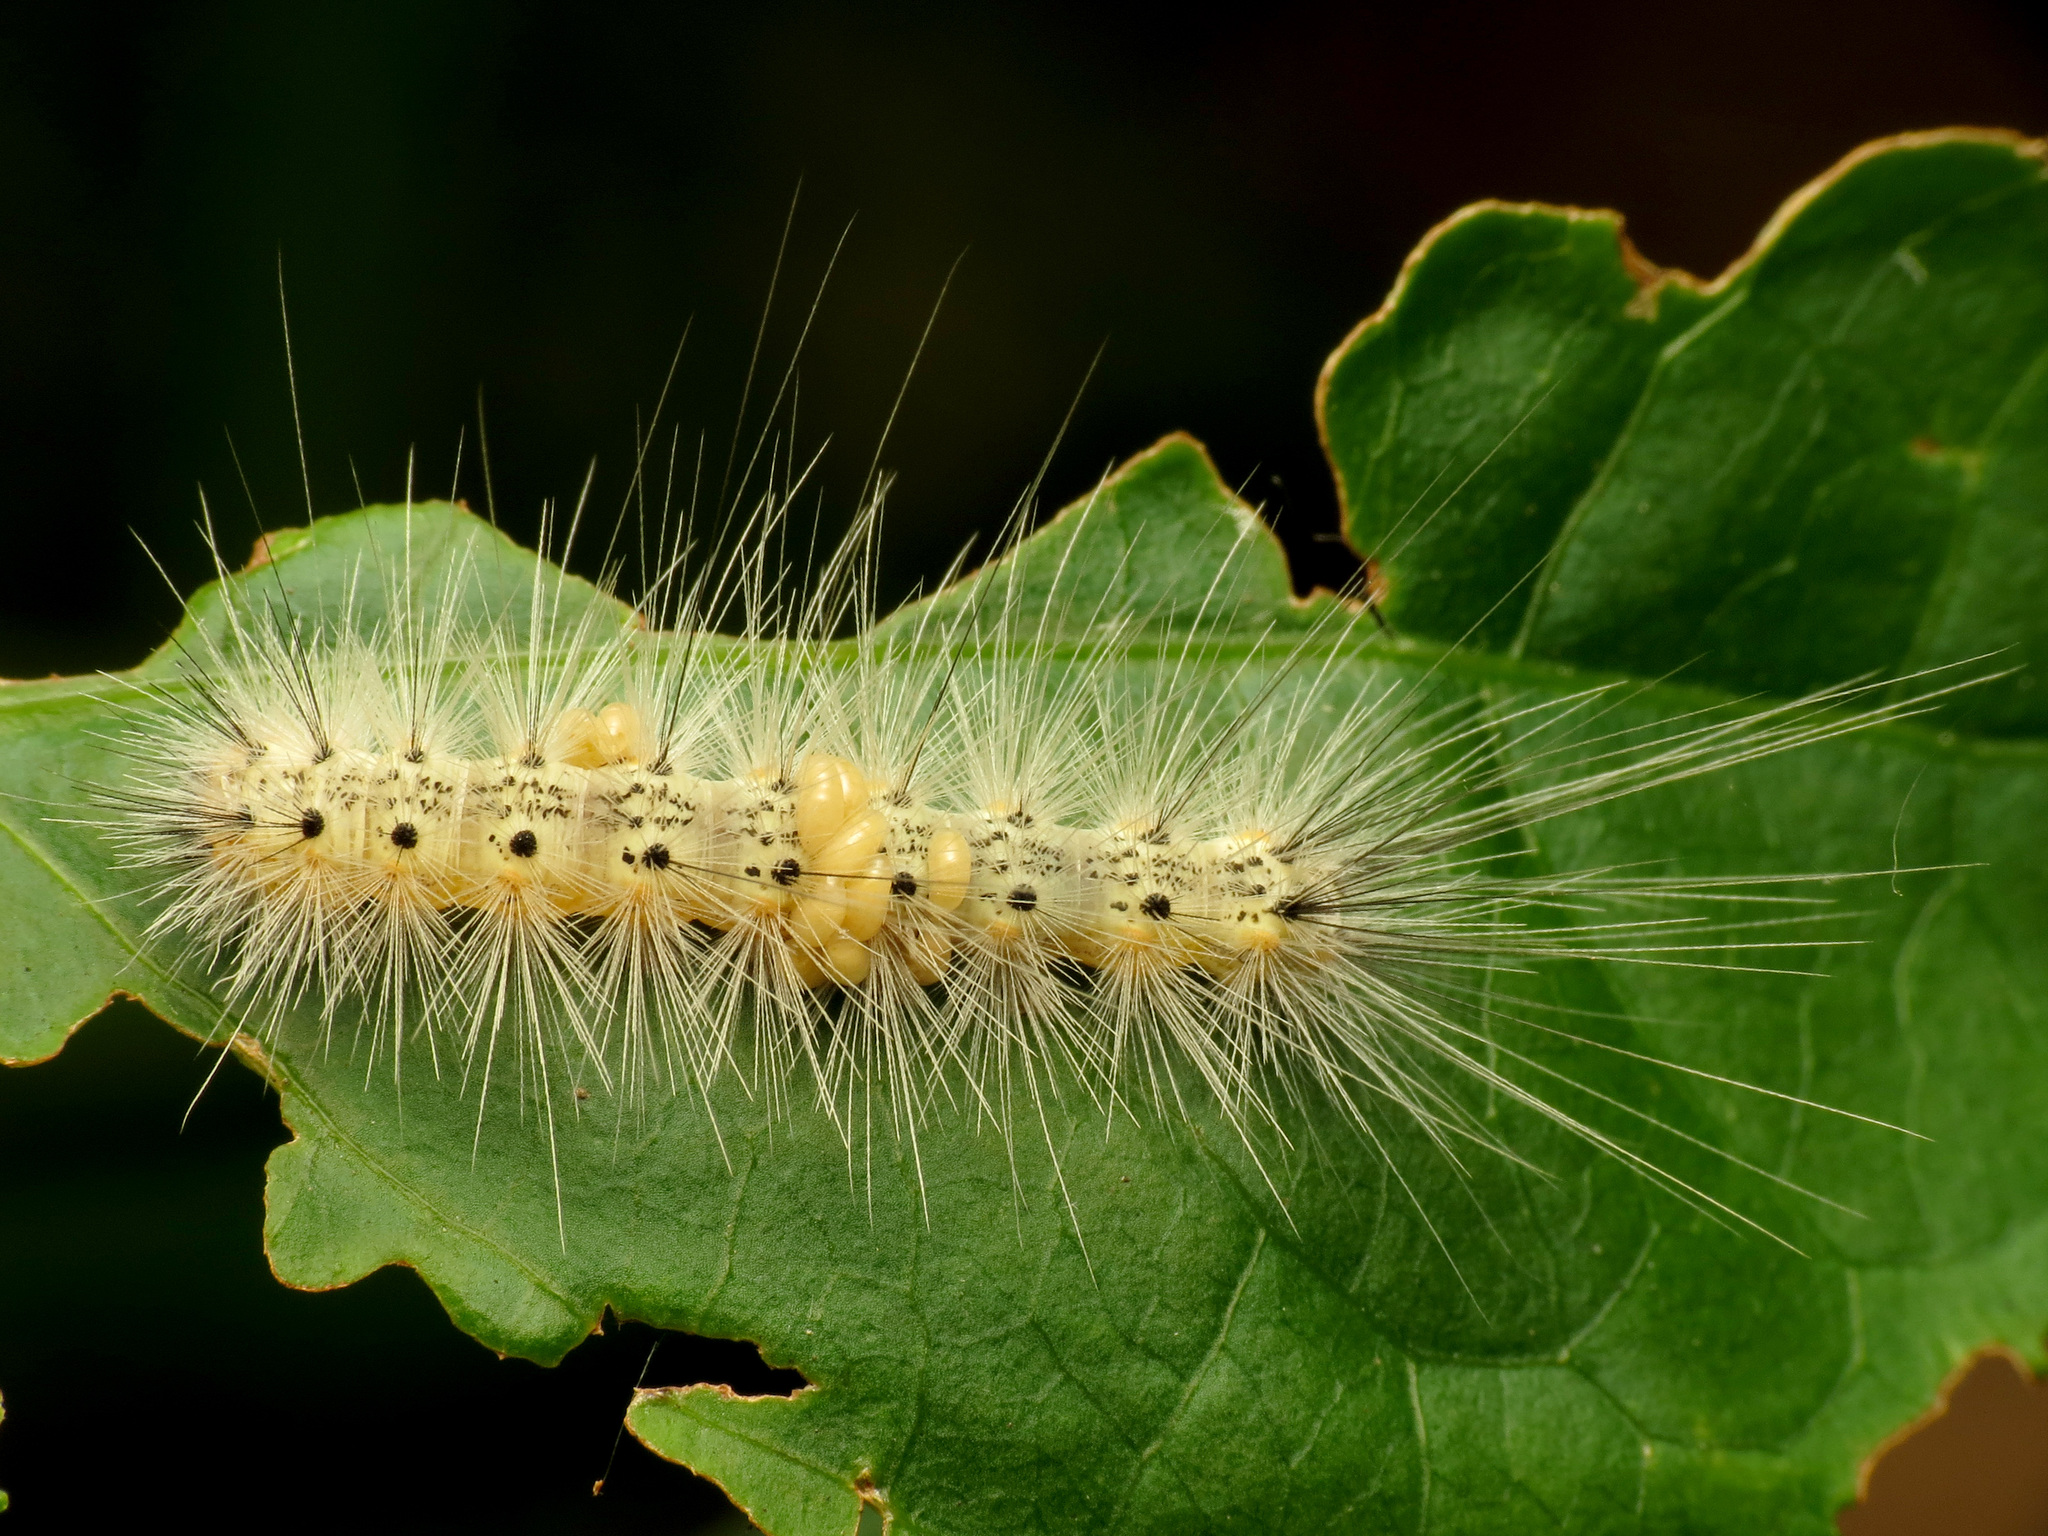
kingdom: Animalia
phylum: Arthropoda
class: Insecta
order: Lepidoptera
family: Erebidae
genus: Hyphantria
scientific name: Hyphantria cunea
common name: American white moth
